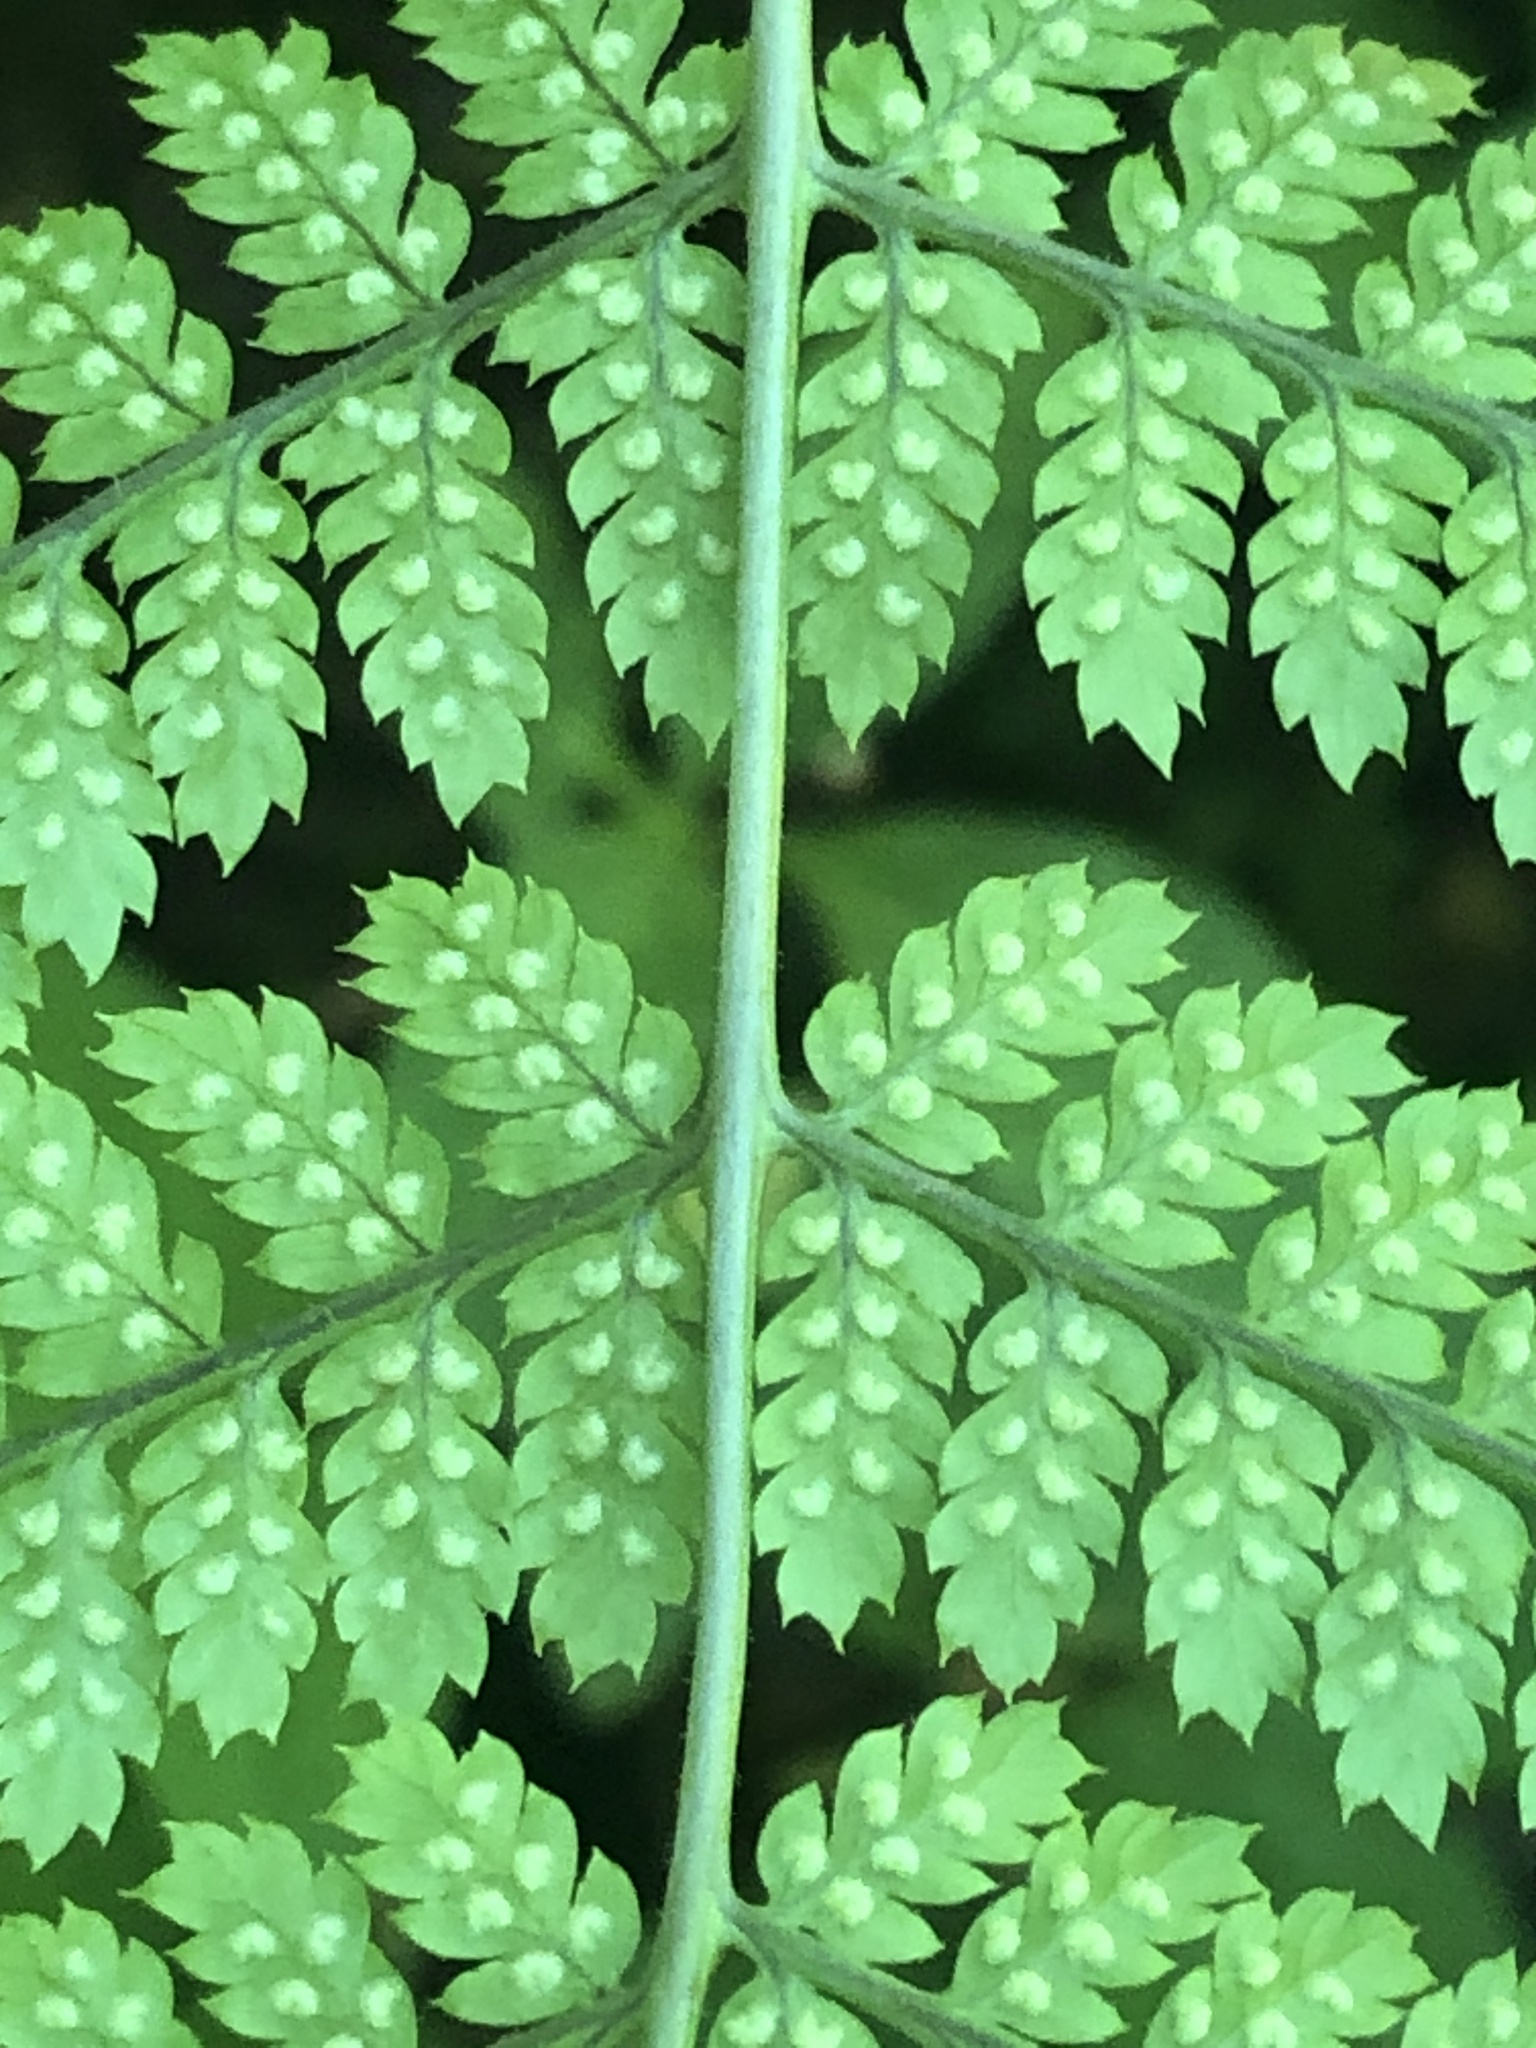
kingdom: Plantae
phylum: Tracheophyta
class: Polypodiopsida
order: Polypodiales
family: Dryopteridaceae
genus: Dryopteris
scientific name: Dryopteris intermedia
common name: Evergreen wood fern
